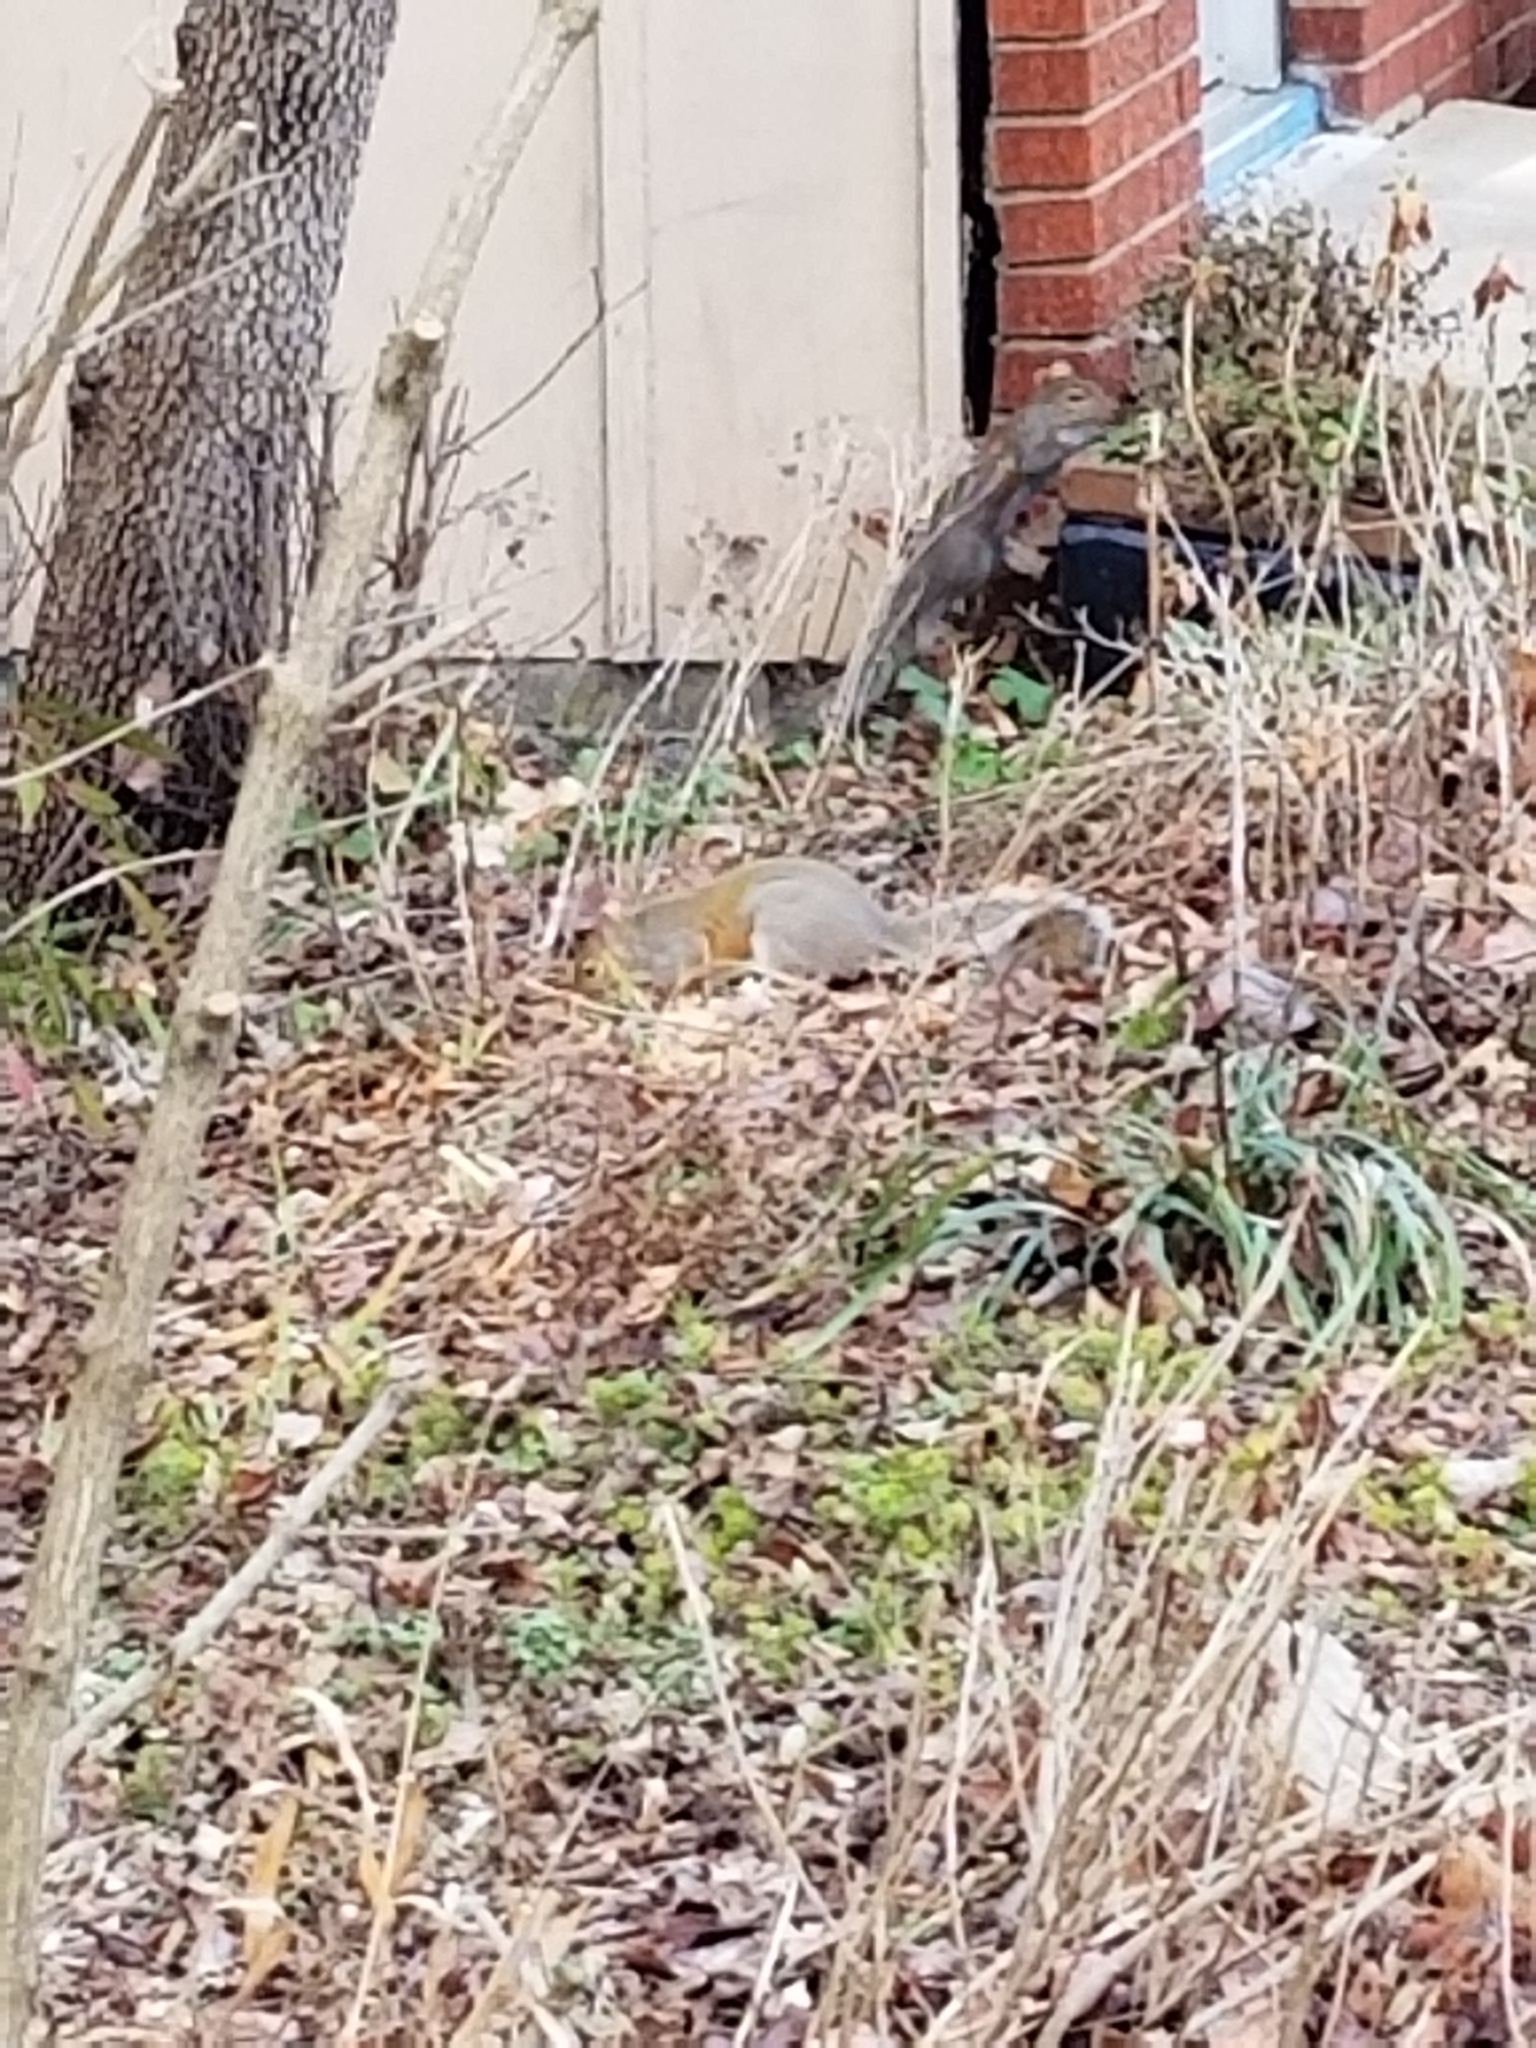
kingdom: Animalia
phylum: Chordata
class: Mammalia
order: Rodentia
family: Sciuridae
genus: Sciurus
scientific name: Sciurus carolinensis
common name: Eastern gray squirrel
